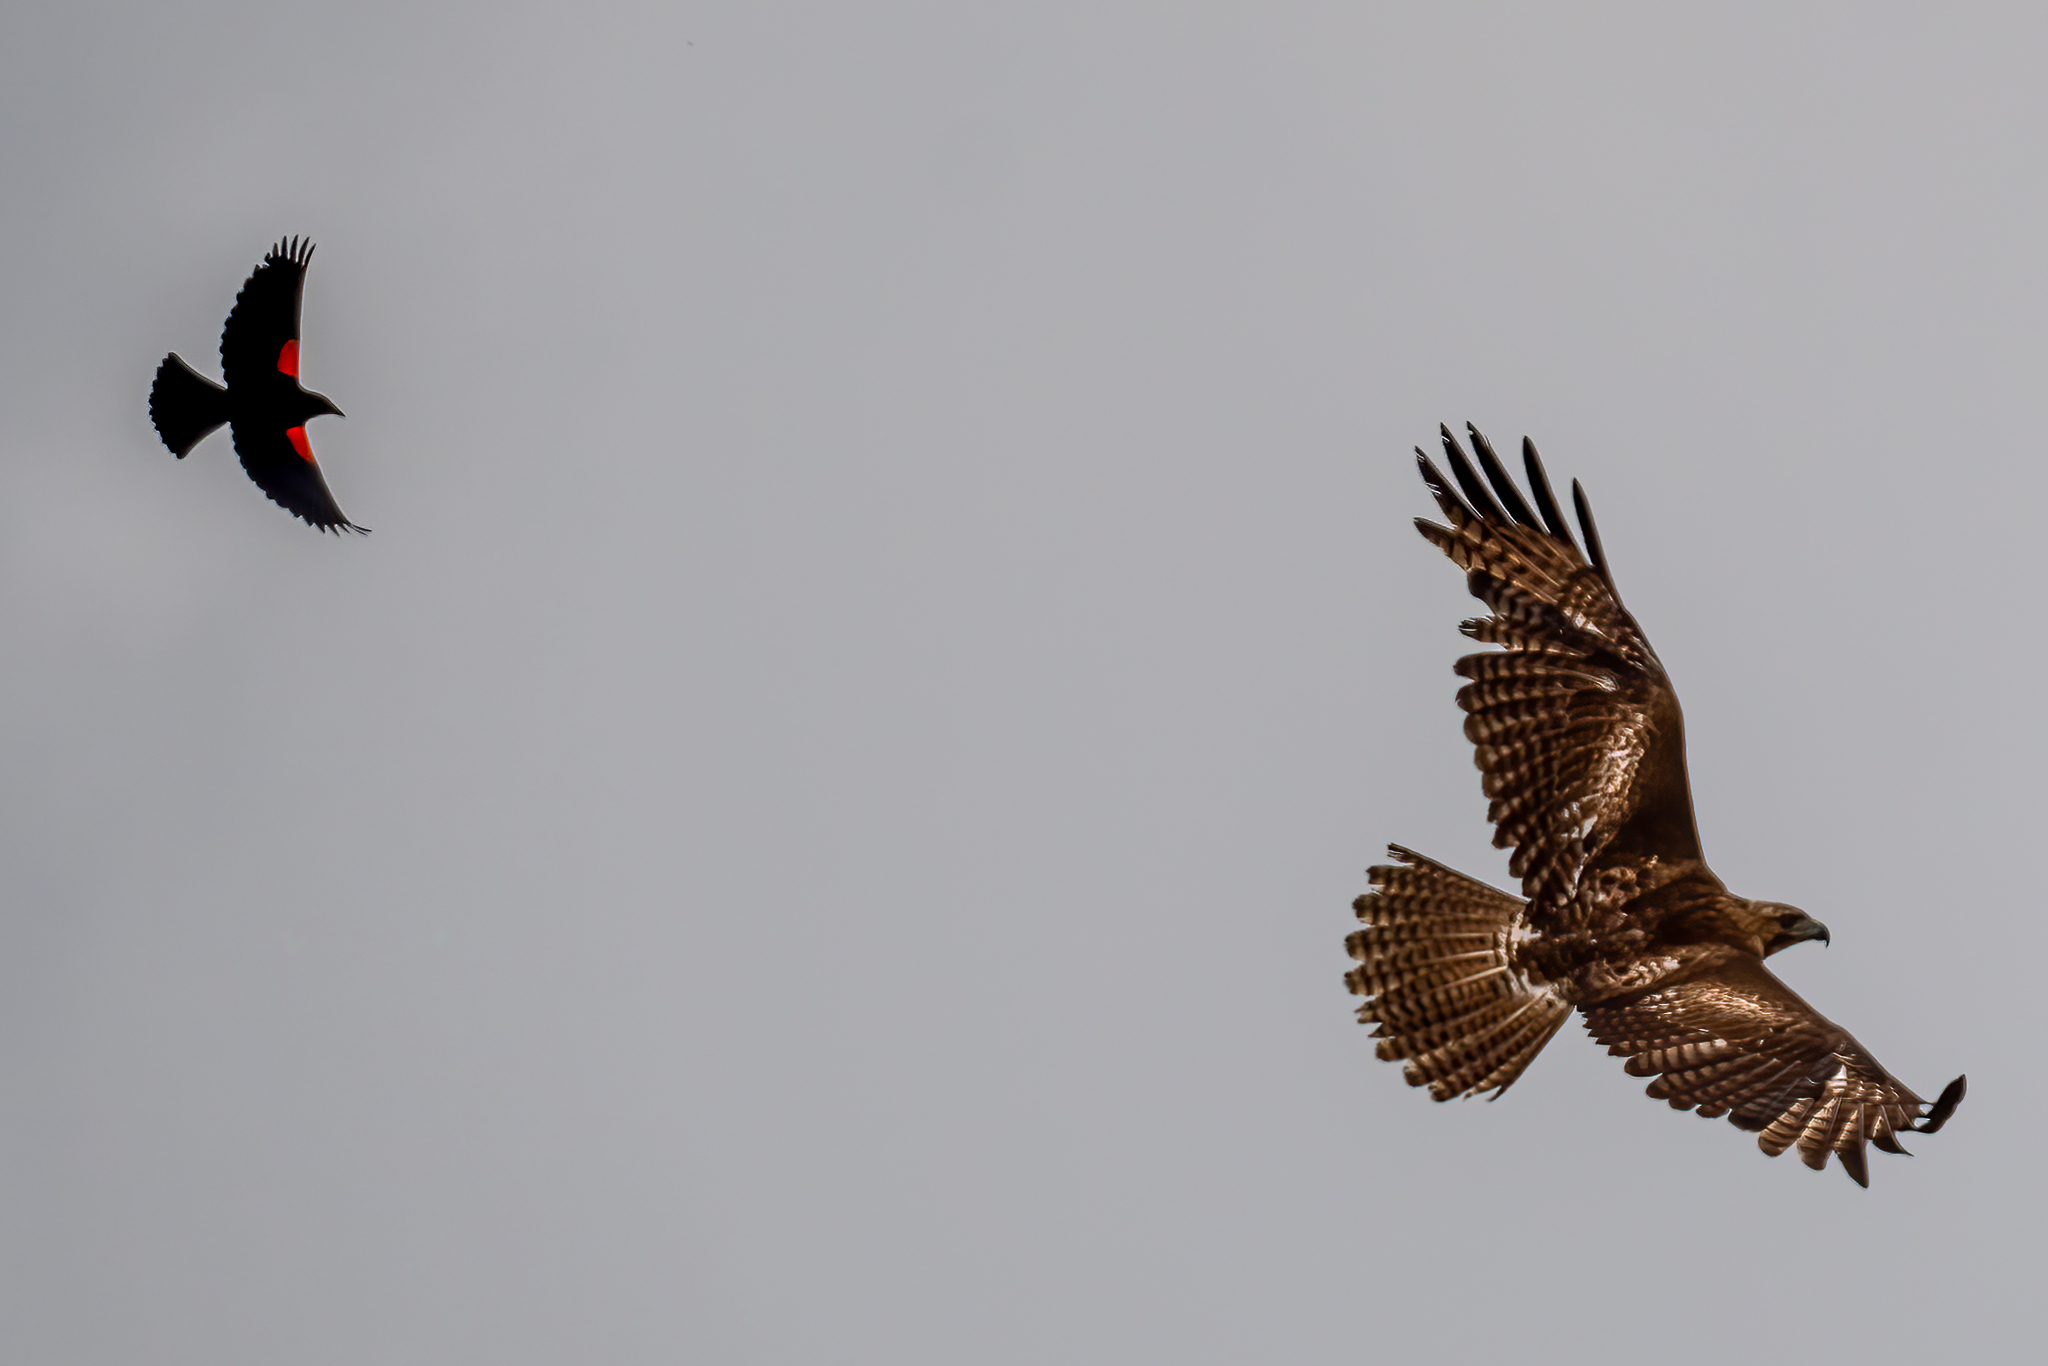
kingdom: Animalia
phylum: Chordata
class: Aves
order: Passeriformes
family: Icteridae
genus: Agelaius
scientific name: Agelaius phoeniceus
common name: Red-winged blackbird
